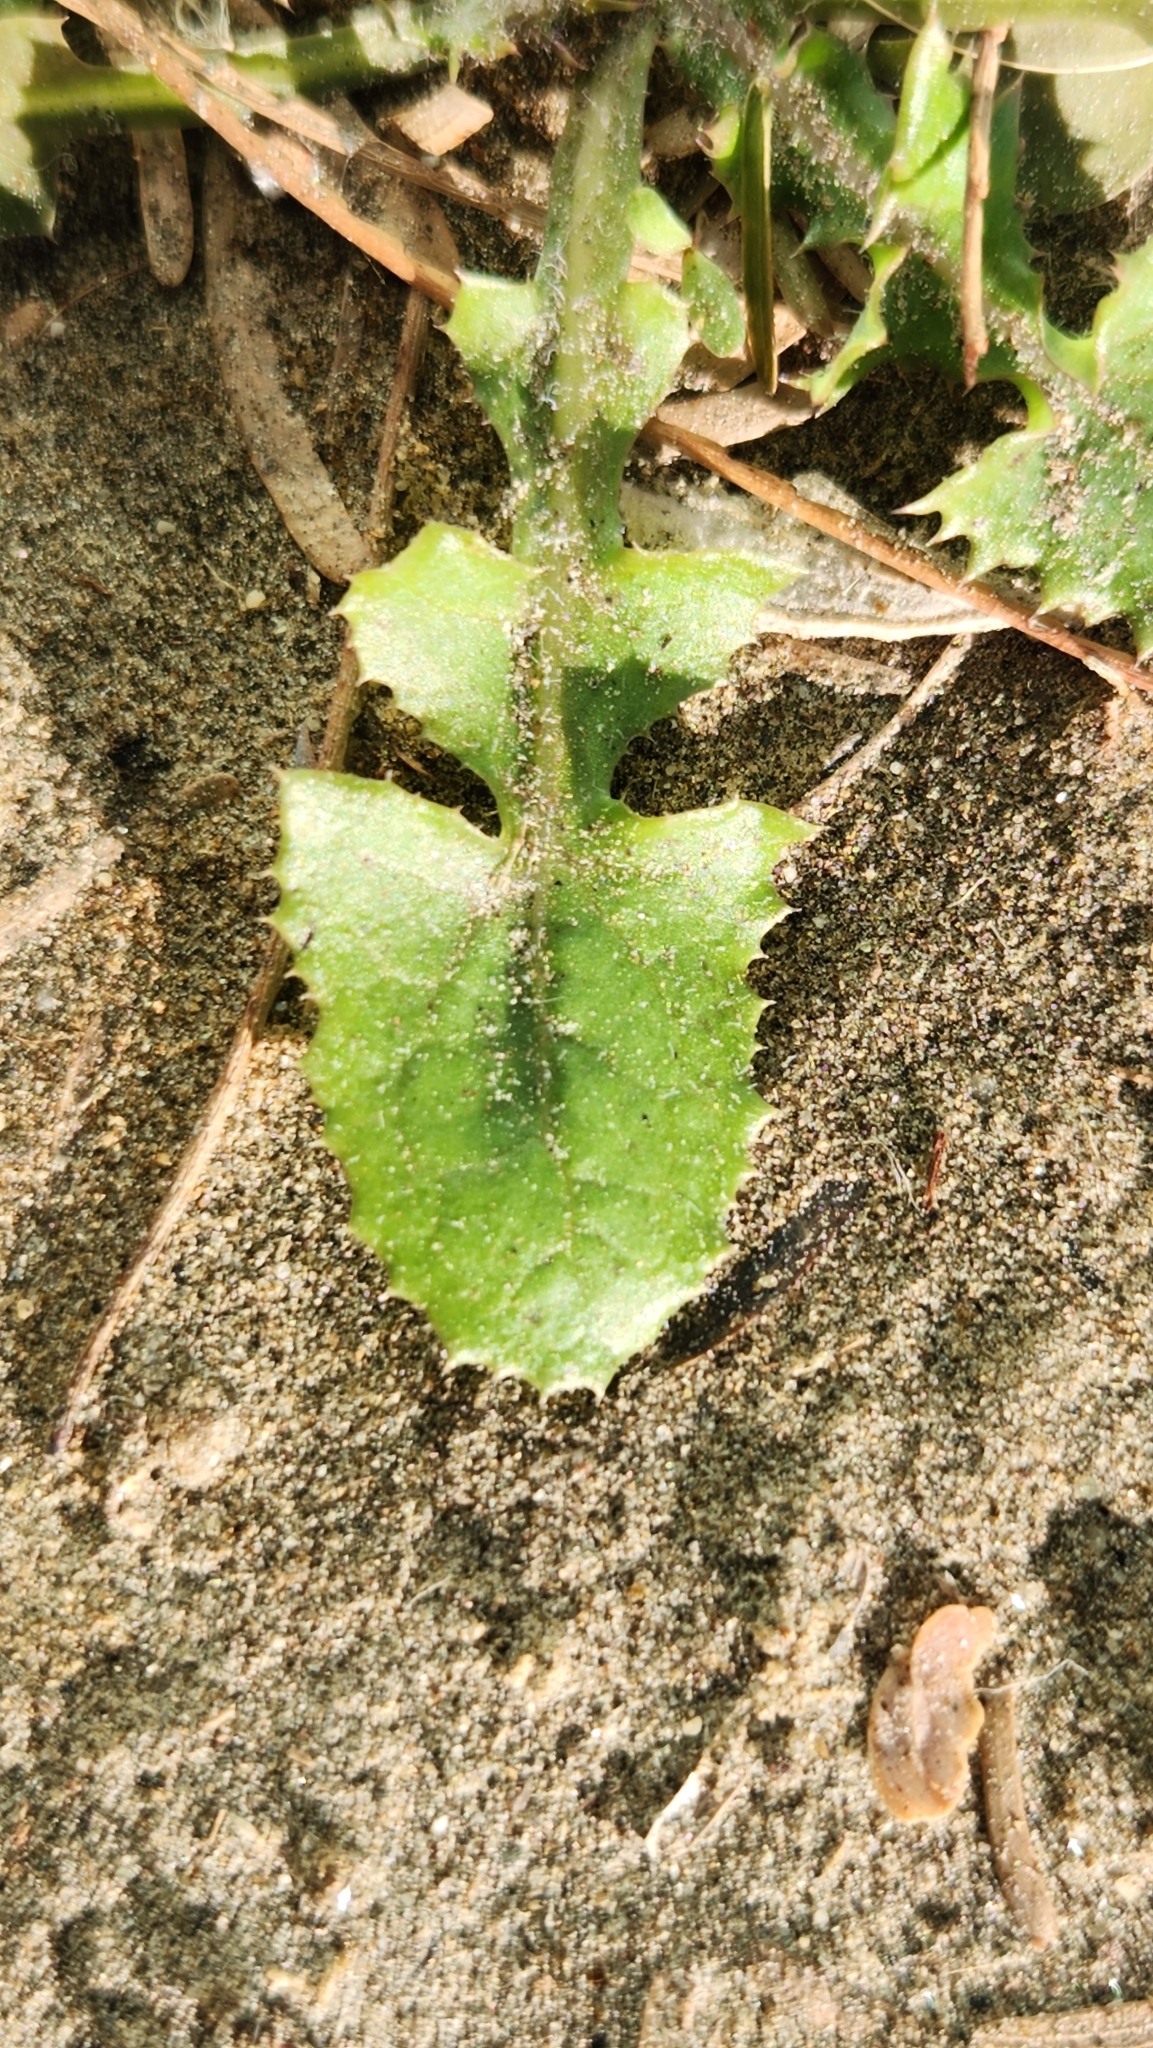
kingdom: Plantae
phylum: Tracheophyta
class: Magnoliopsida
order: Asterales
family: Asteraceae
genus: Sonchus
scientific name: Sonchus oleraceus
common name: Common sowthistle
